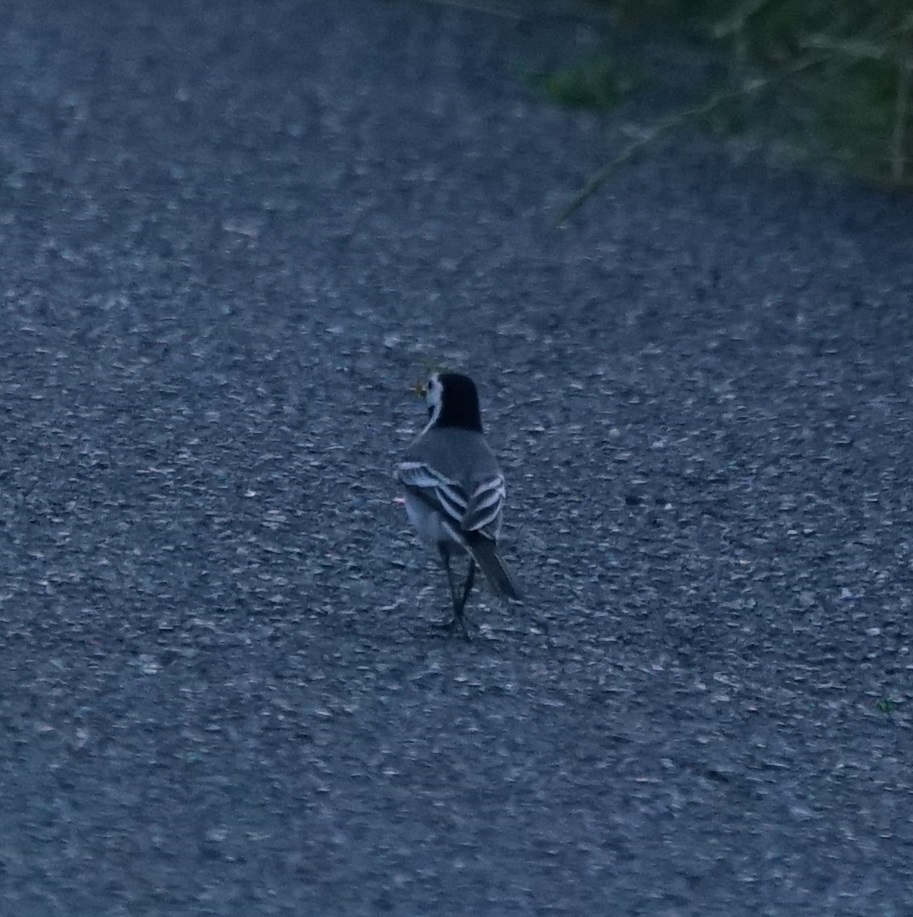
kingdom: Animalia
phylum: Chordata
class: Aves
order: Passeriformes
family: Motacillidae
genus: Motacilla
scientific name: Motacilla alba
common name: White wagtail
